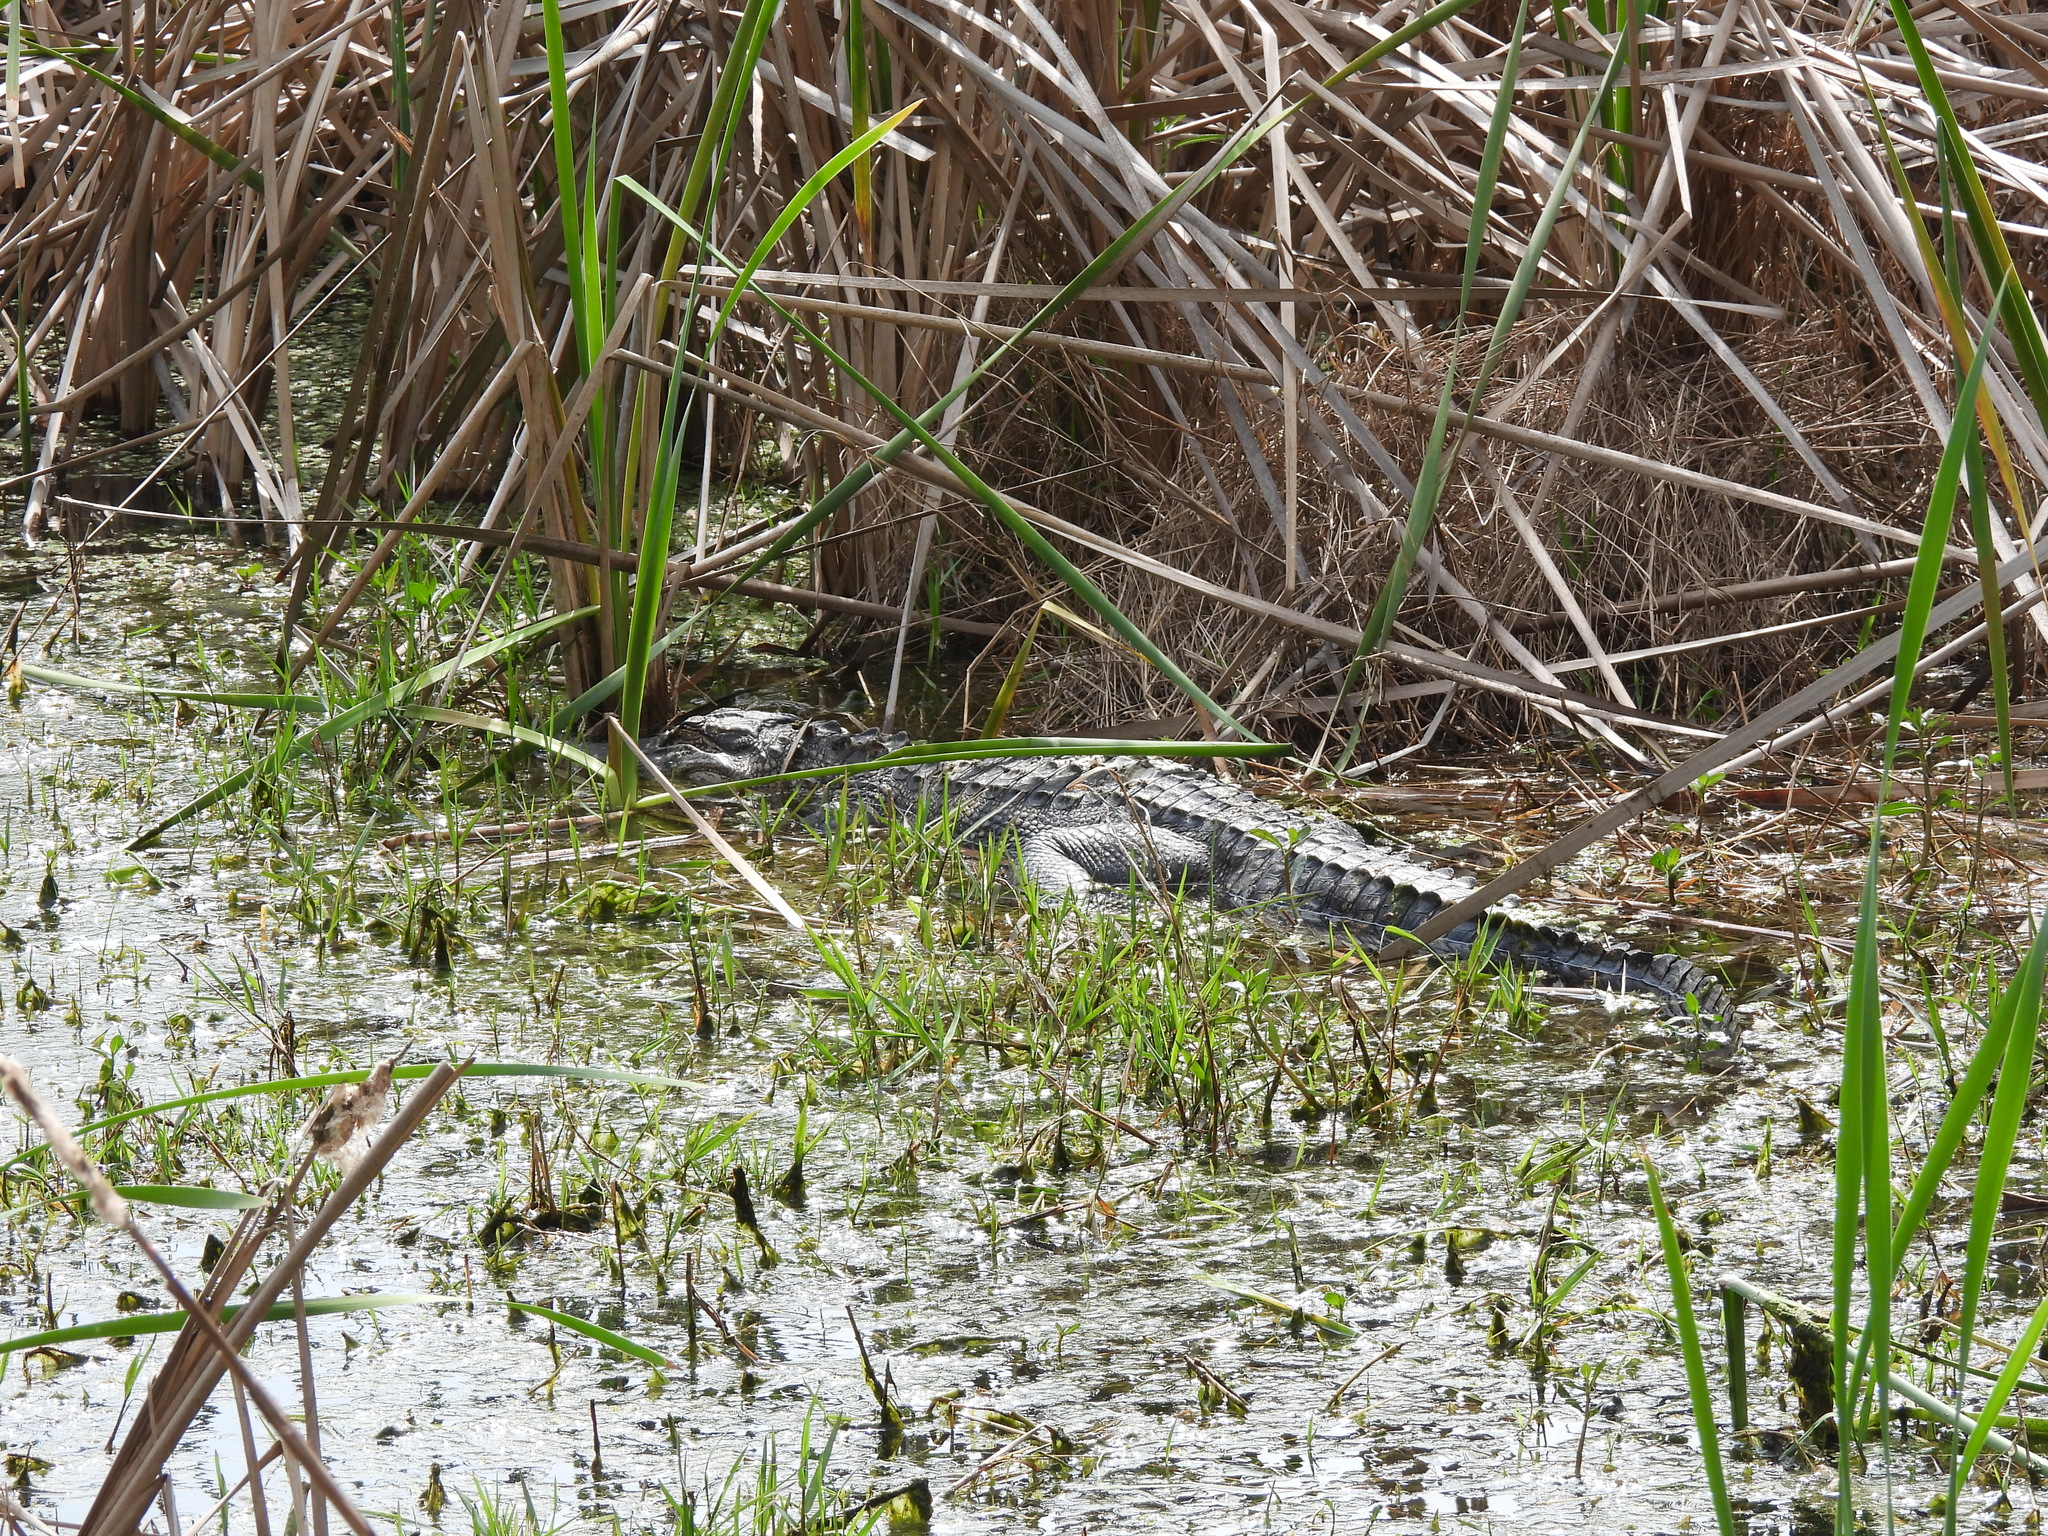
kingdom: Animalia
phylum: Chordata
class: Crocodylia
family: Alligatoridae
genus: Alligator
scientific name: Alligator mississippiensis
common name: American alligator
